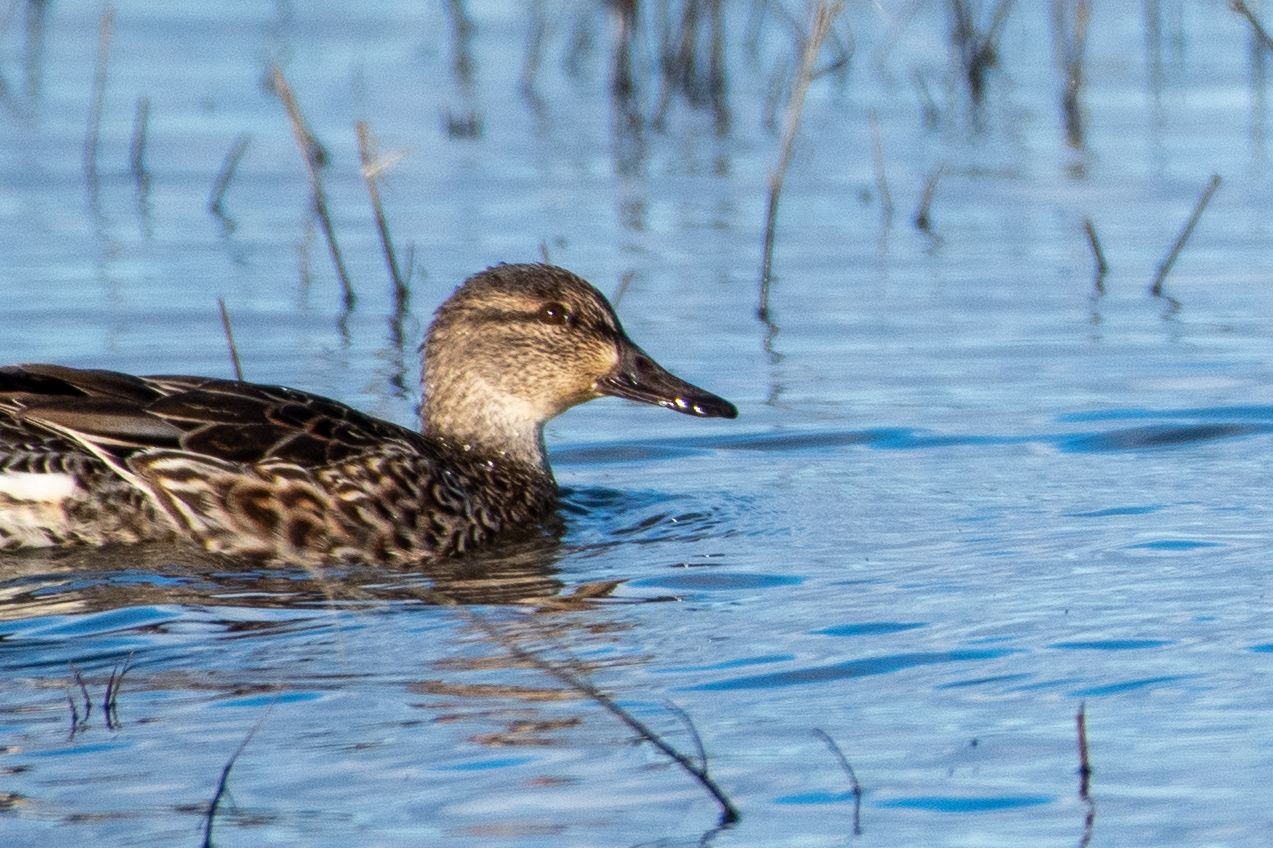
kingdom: Animalia
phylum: Chordata
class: Aves
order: Anseriformes
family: Anatidae
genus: Anas
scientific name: Anas crecca
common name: Eurasian teal
